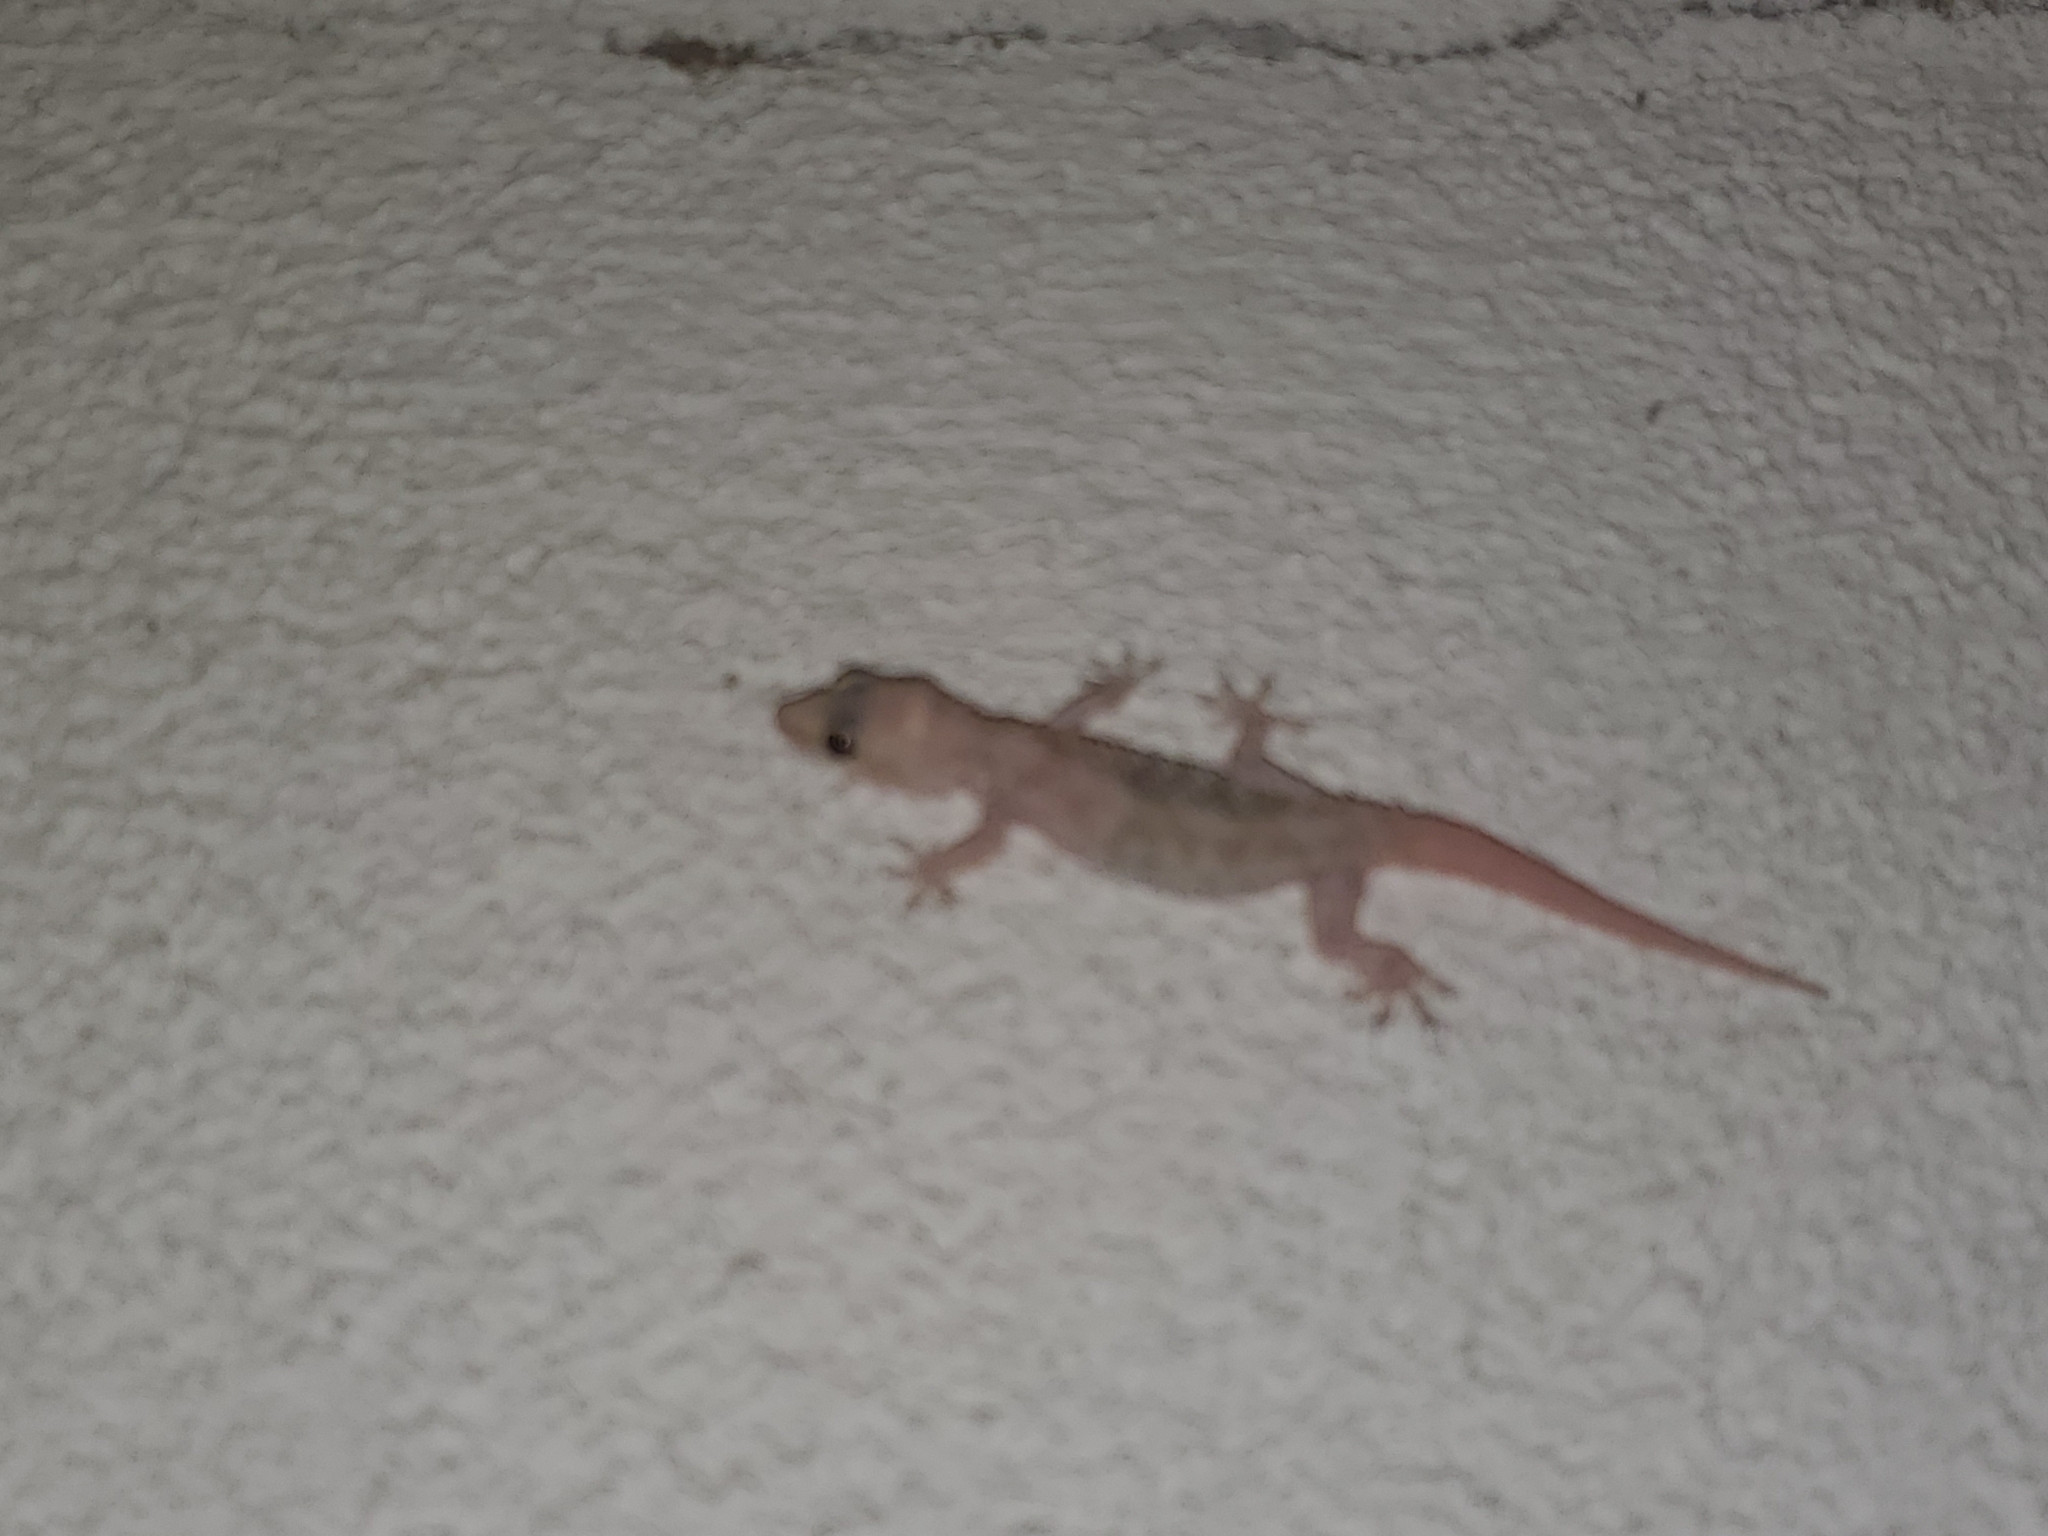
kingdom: Animalia
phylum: Chordata
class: Squamata
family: Gekkonidae
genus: Hemidactylus
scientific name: Hemidactylus turcicus
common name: Turkish gecko
